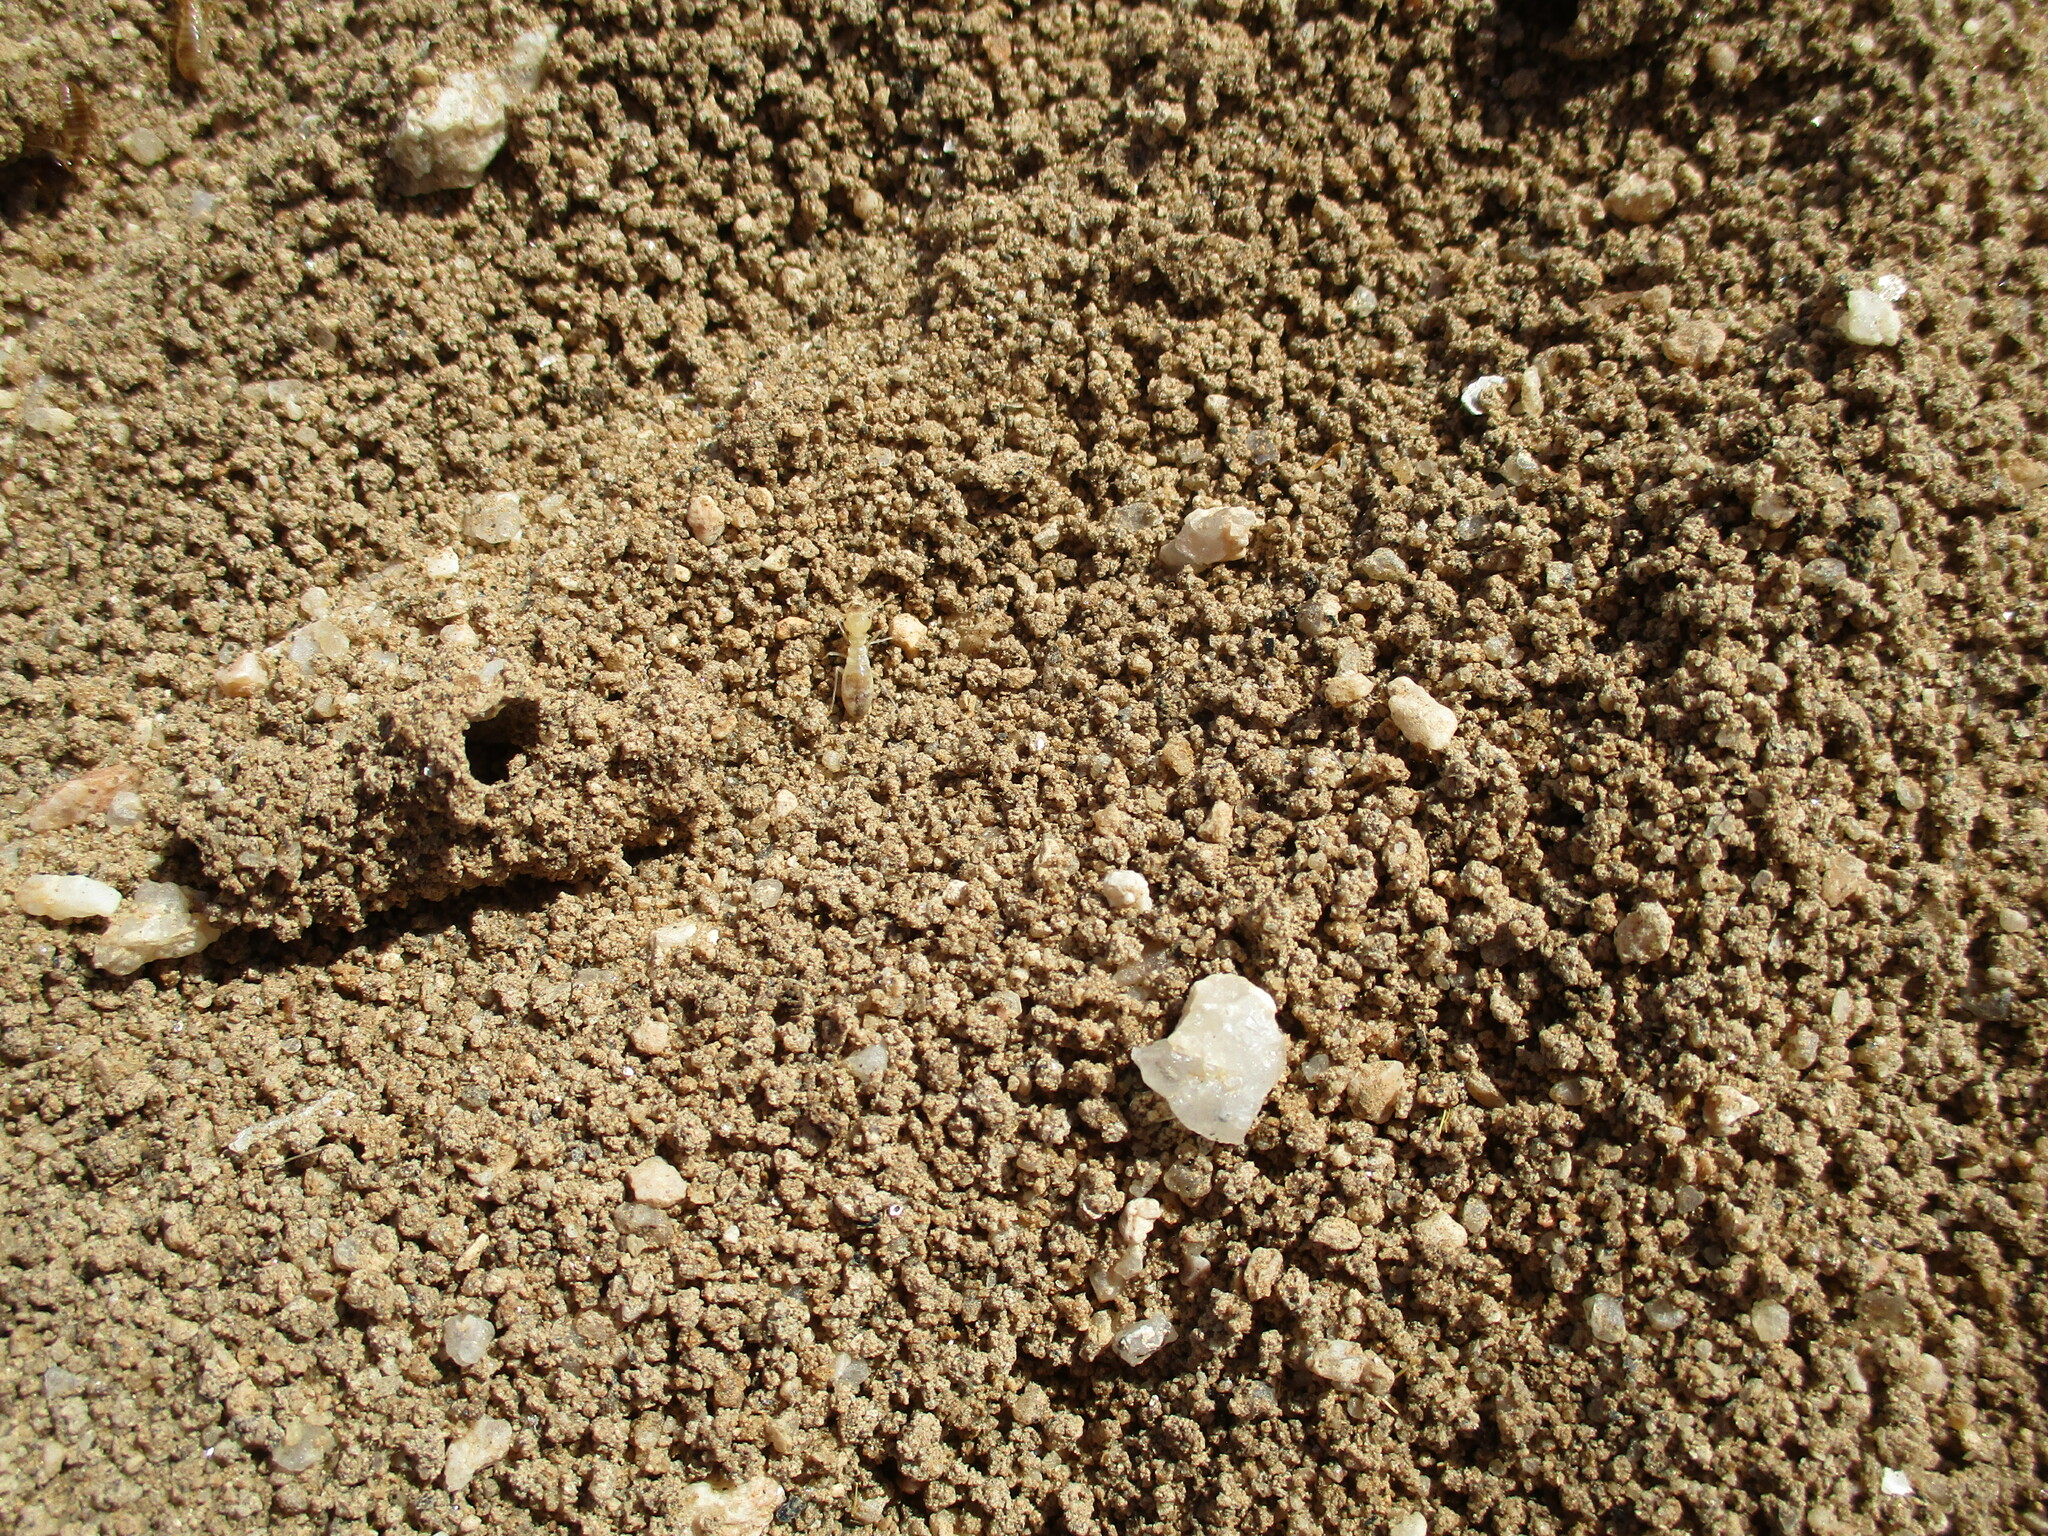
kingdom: Animalia
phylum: Arthropoda
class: Insecta
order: Blattodea
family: Hodotermitidae
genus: Hodotermes
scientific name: Hodotermes mossambicus
